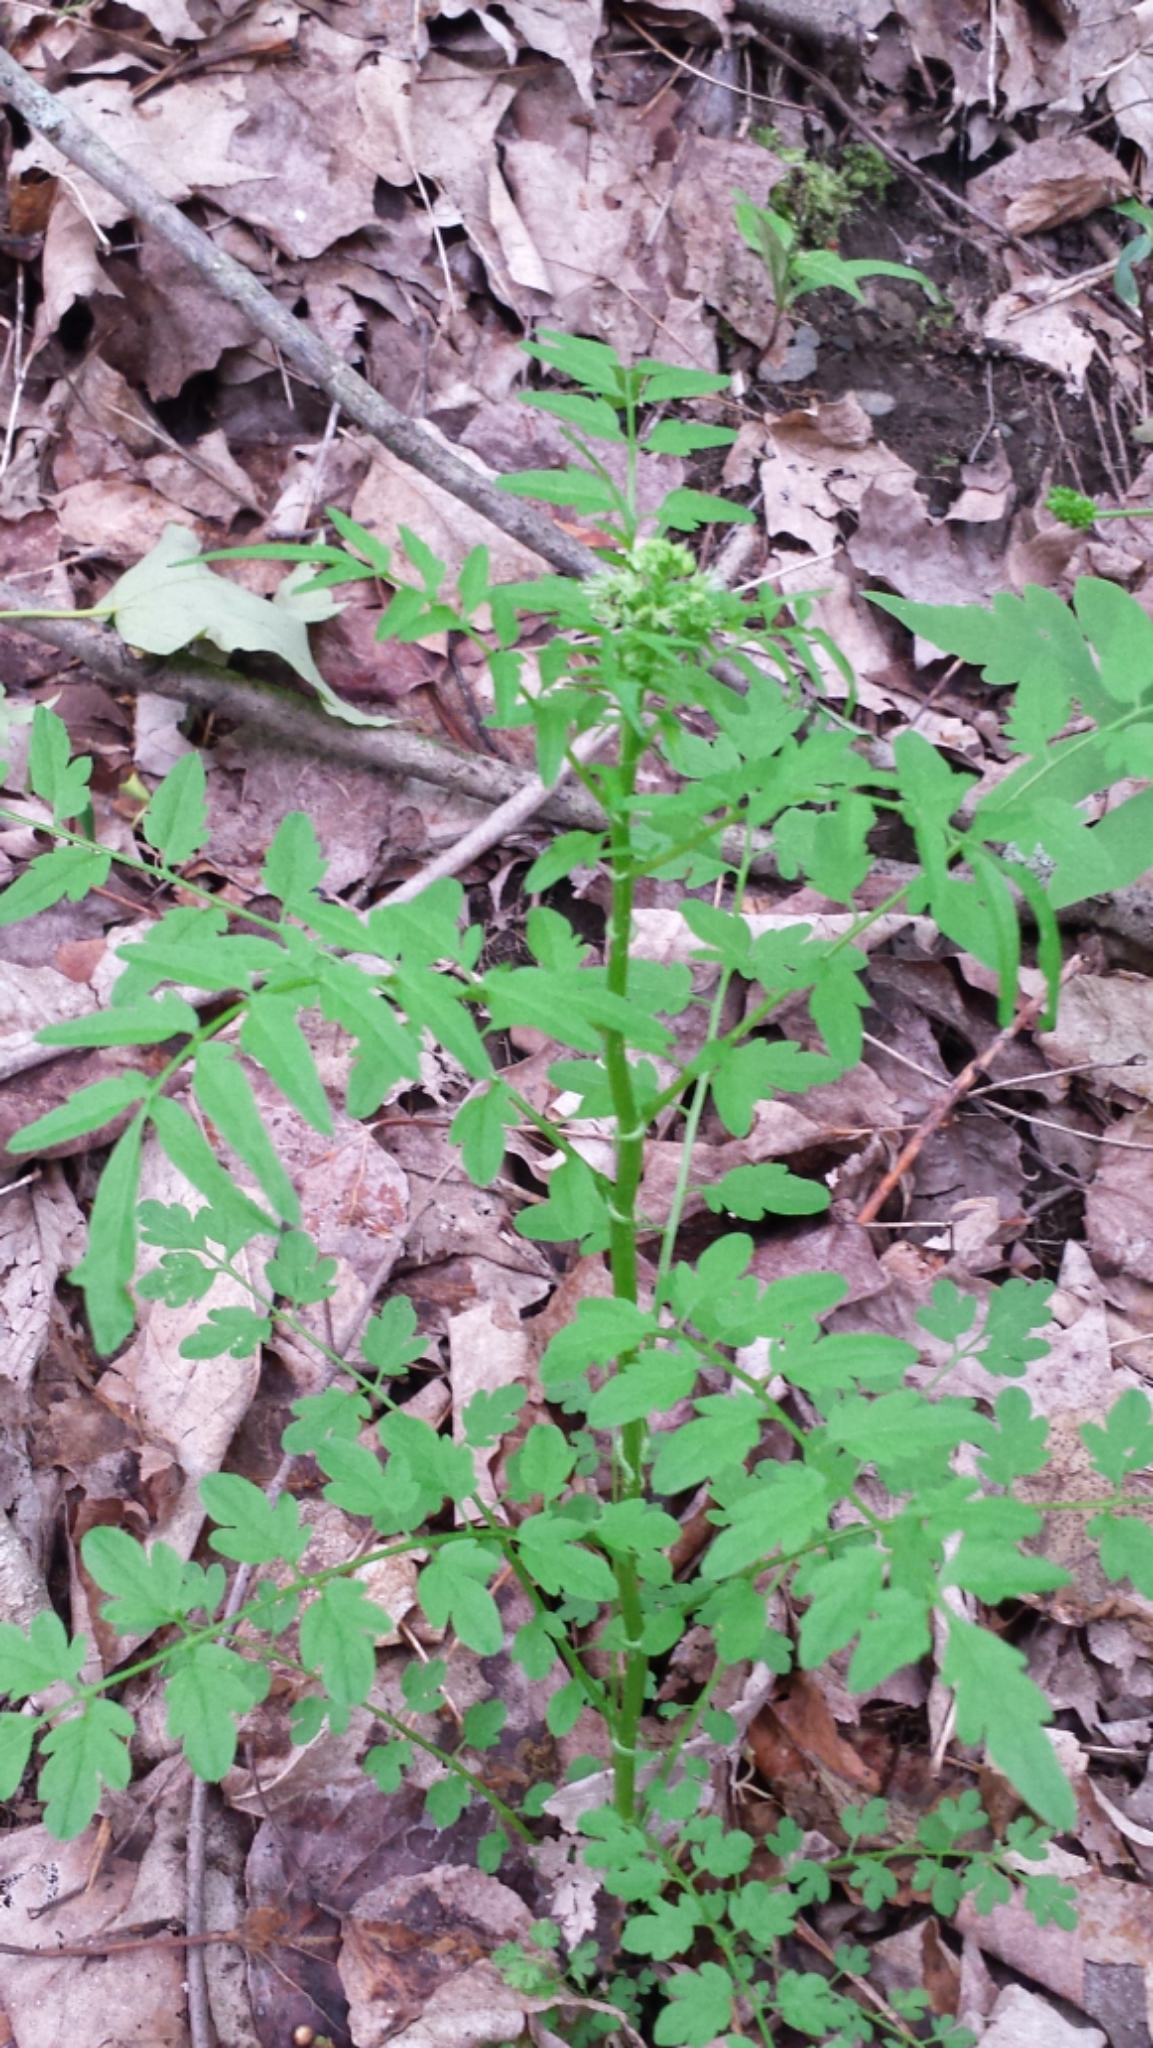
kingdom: Plantae
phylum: Tracheophyta
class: Magnoliopsida
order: Brassicales
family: Brassicaceae
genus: Cardamine
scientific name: Cardamine impatiens
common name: Narrow-leaved bitter-cress
